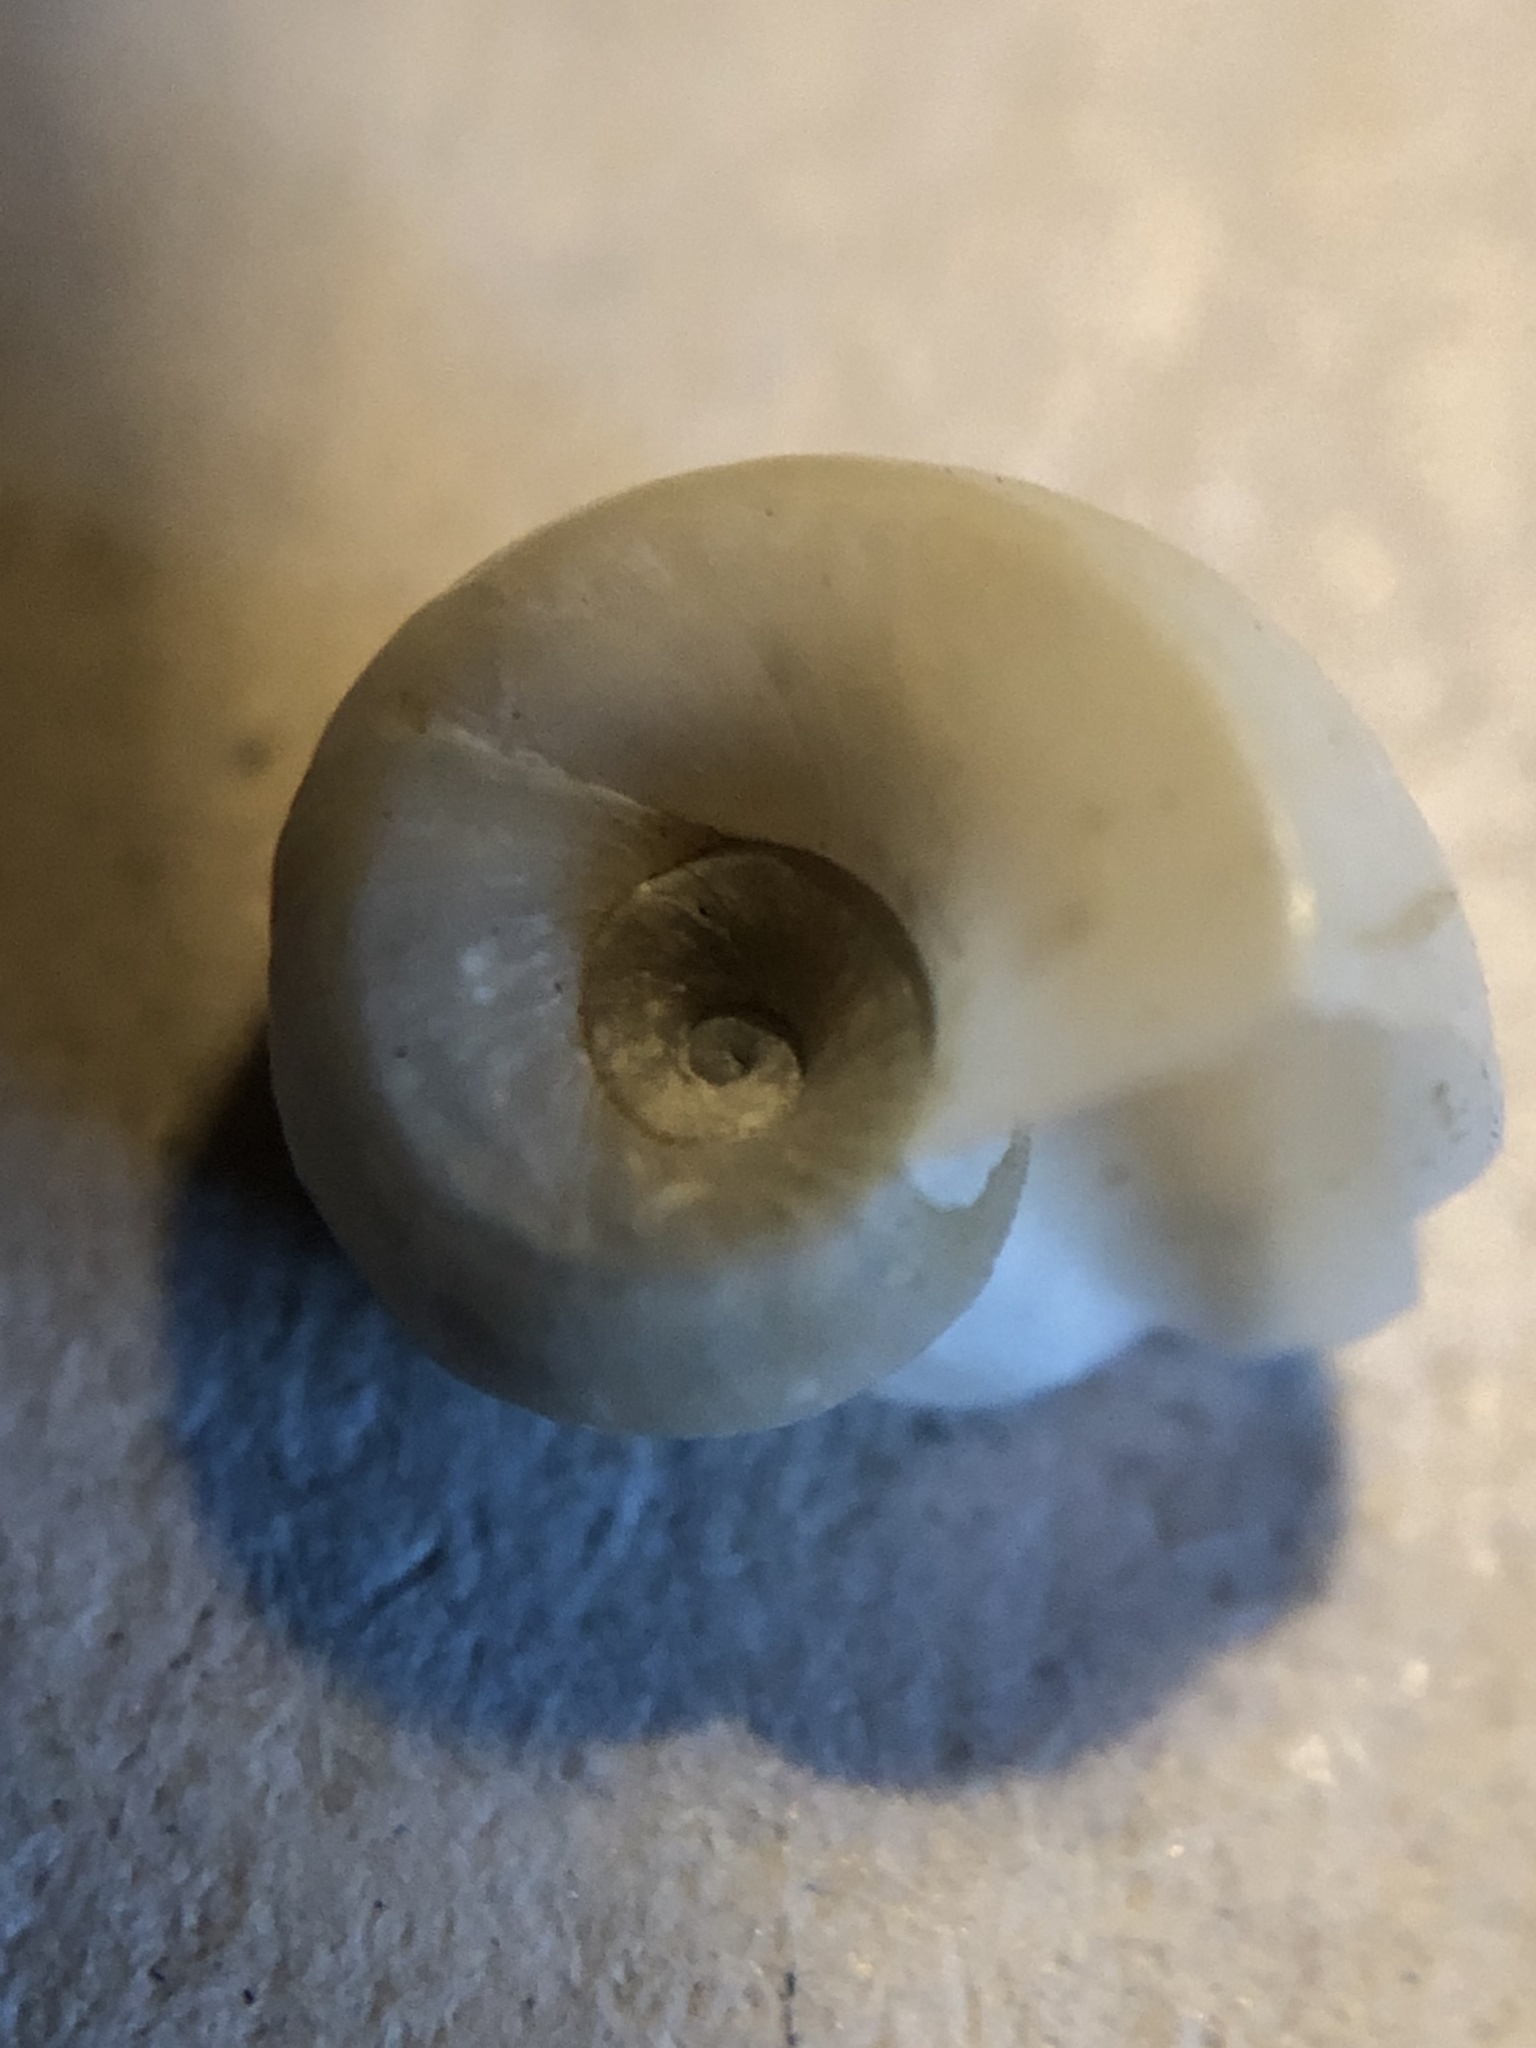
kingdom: Animalia
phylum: Mollusca
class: Gastropoda
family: Planorbidae
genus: Planorbella
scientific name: Planorbella trivolvis
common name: Marsh rams-horn
